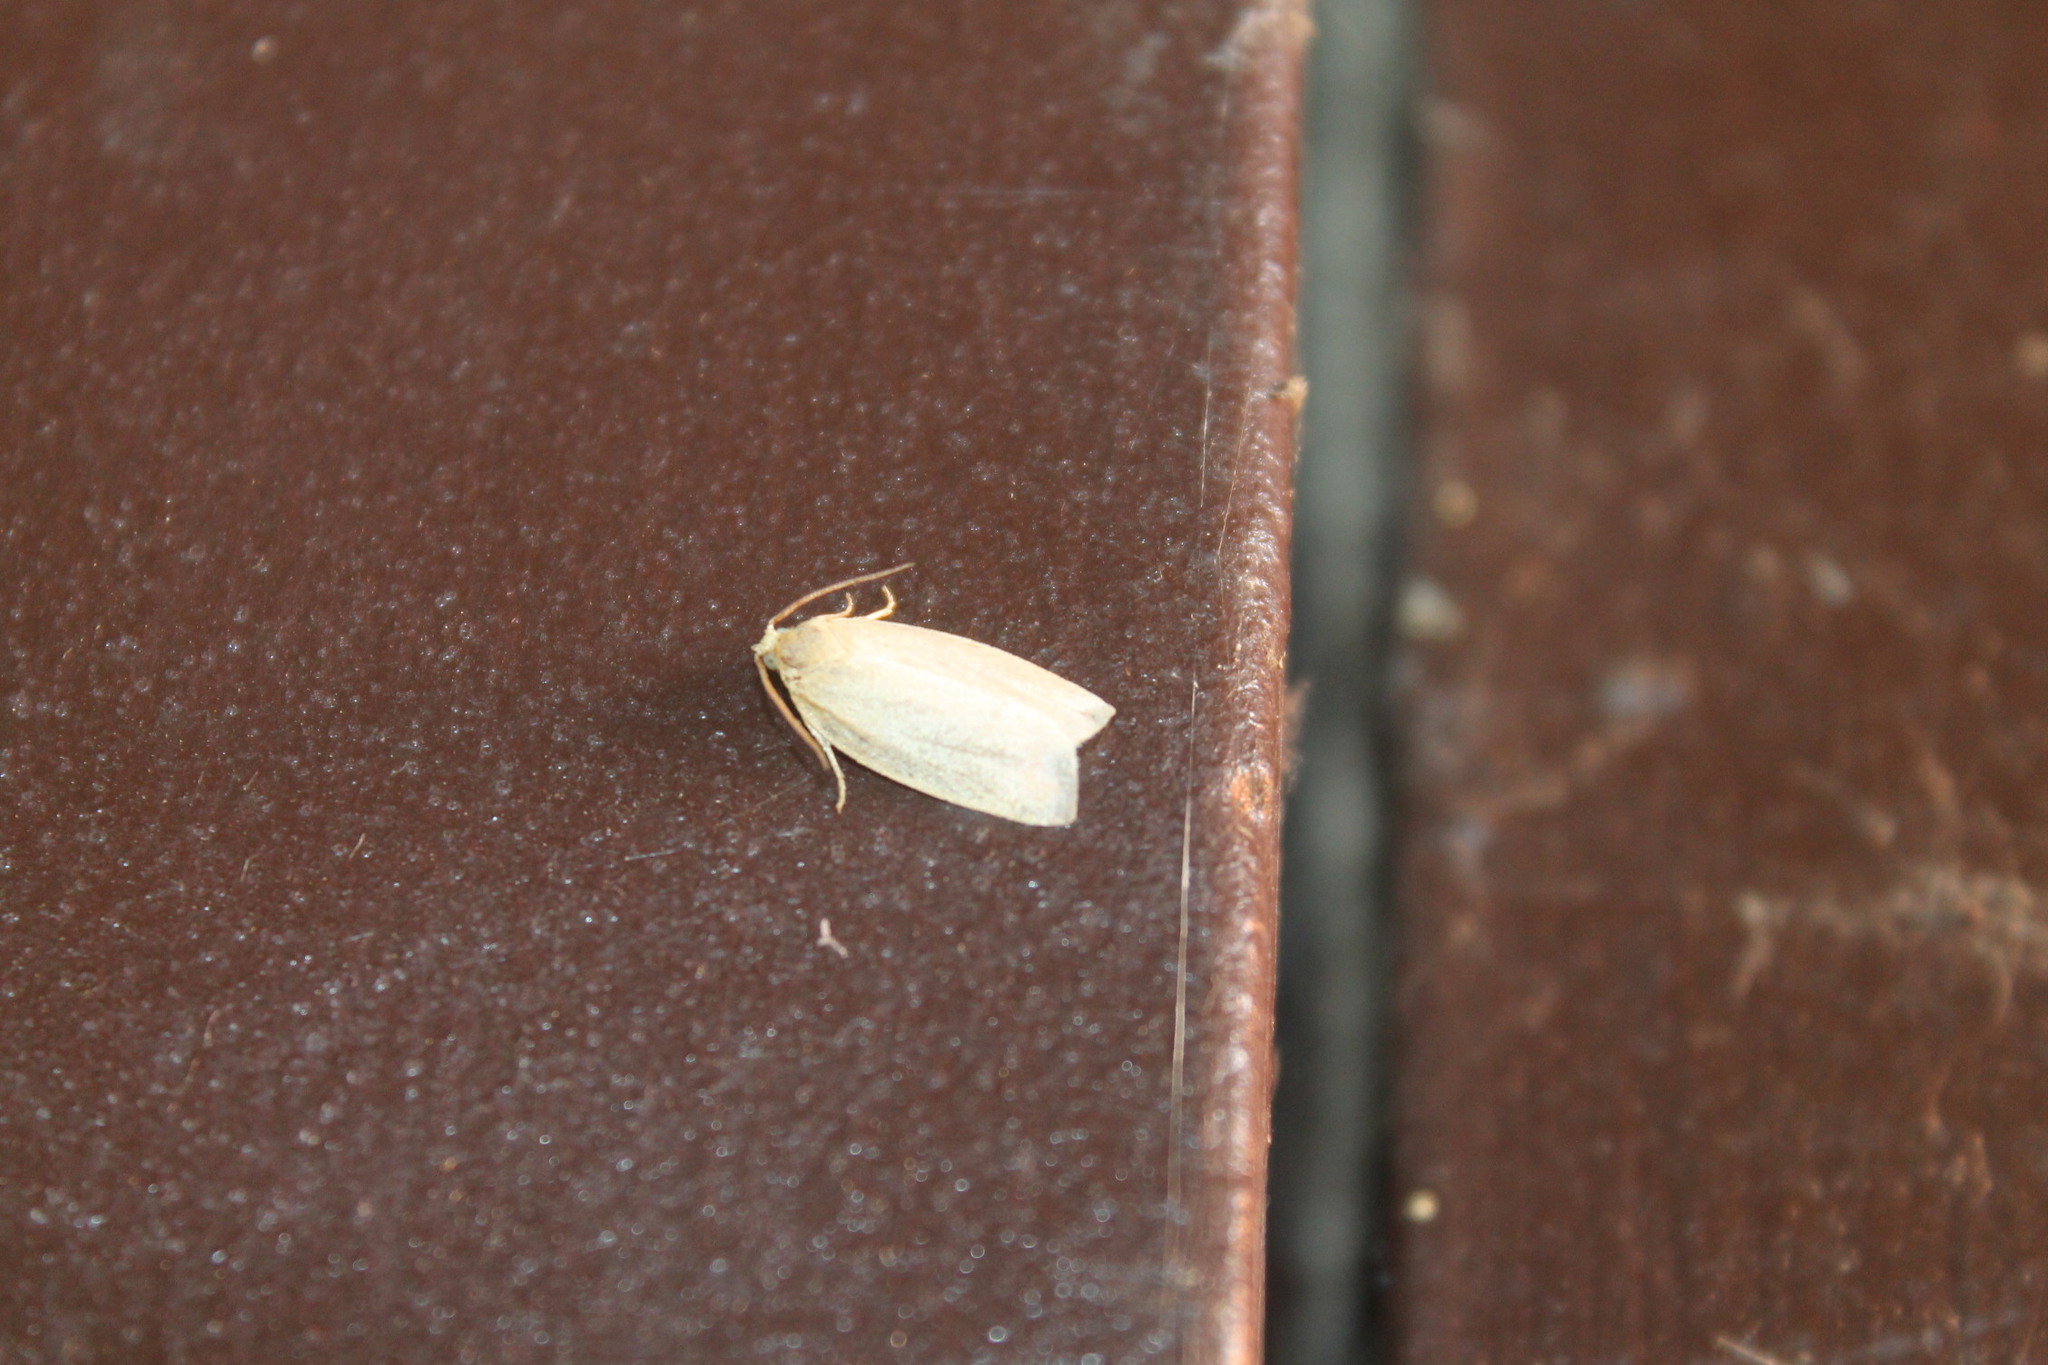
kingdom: Animalia
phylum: Arthropoda
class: Insecta
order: Lepidoptera
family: Tortricidae
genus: Clepsis
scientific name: Clepsis clemensiana
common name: Clemens' clepsis moth
